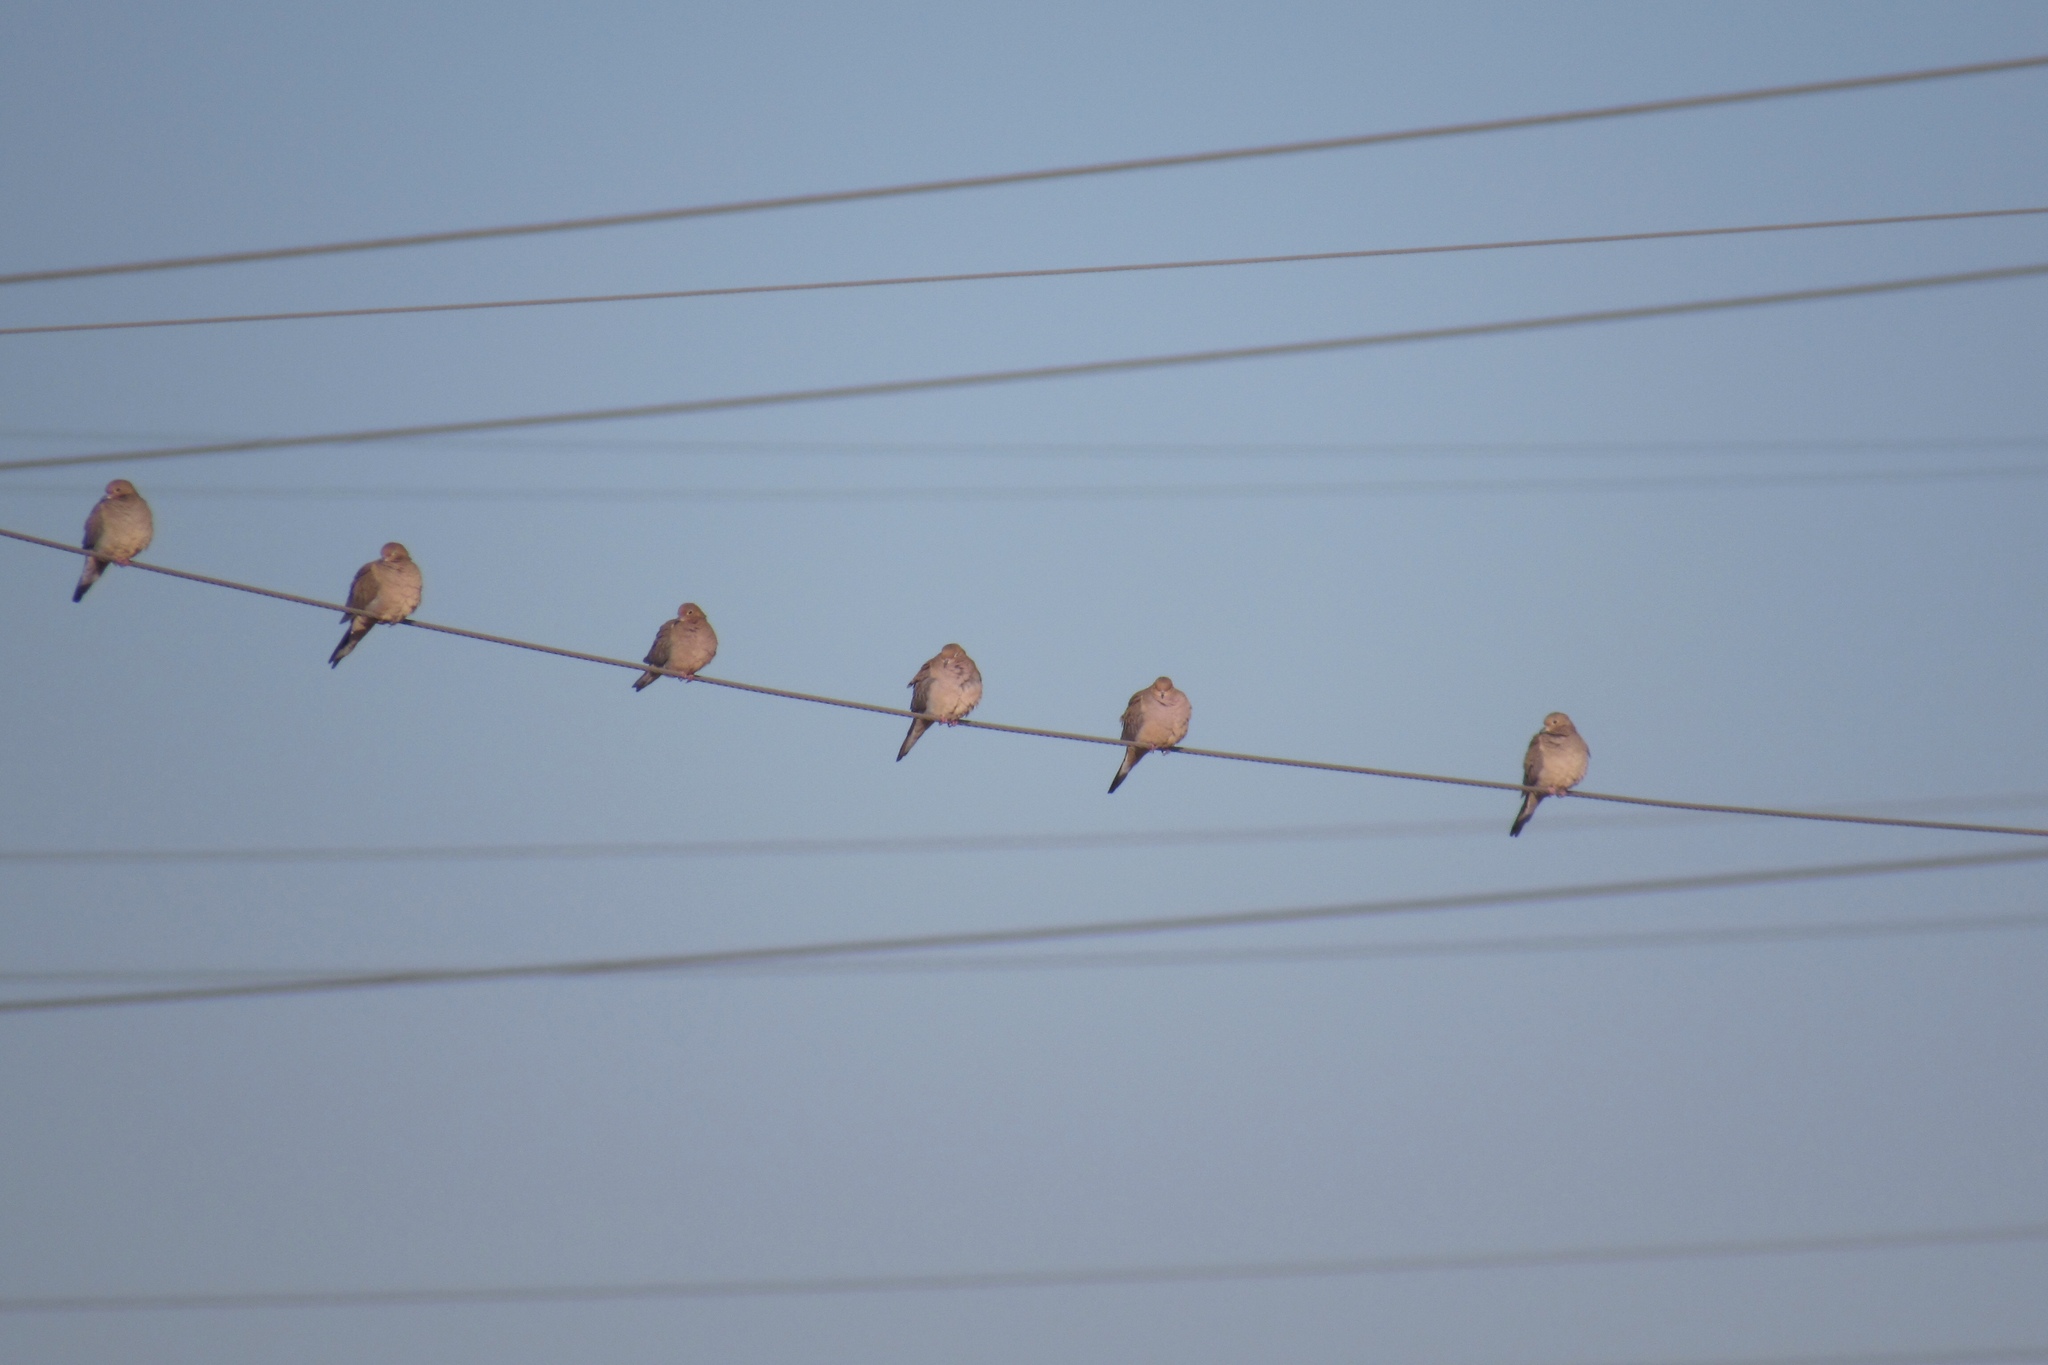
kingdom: Animalia
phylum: Chordata
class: Aves
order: Columbiformes
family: Columbidae
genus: Zenaida
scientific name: Zenaida macroura
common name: Mourning dove
